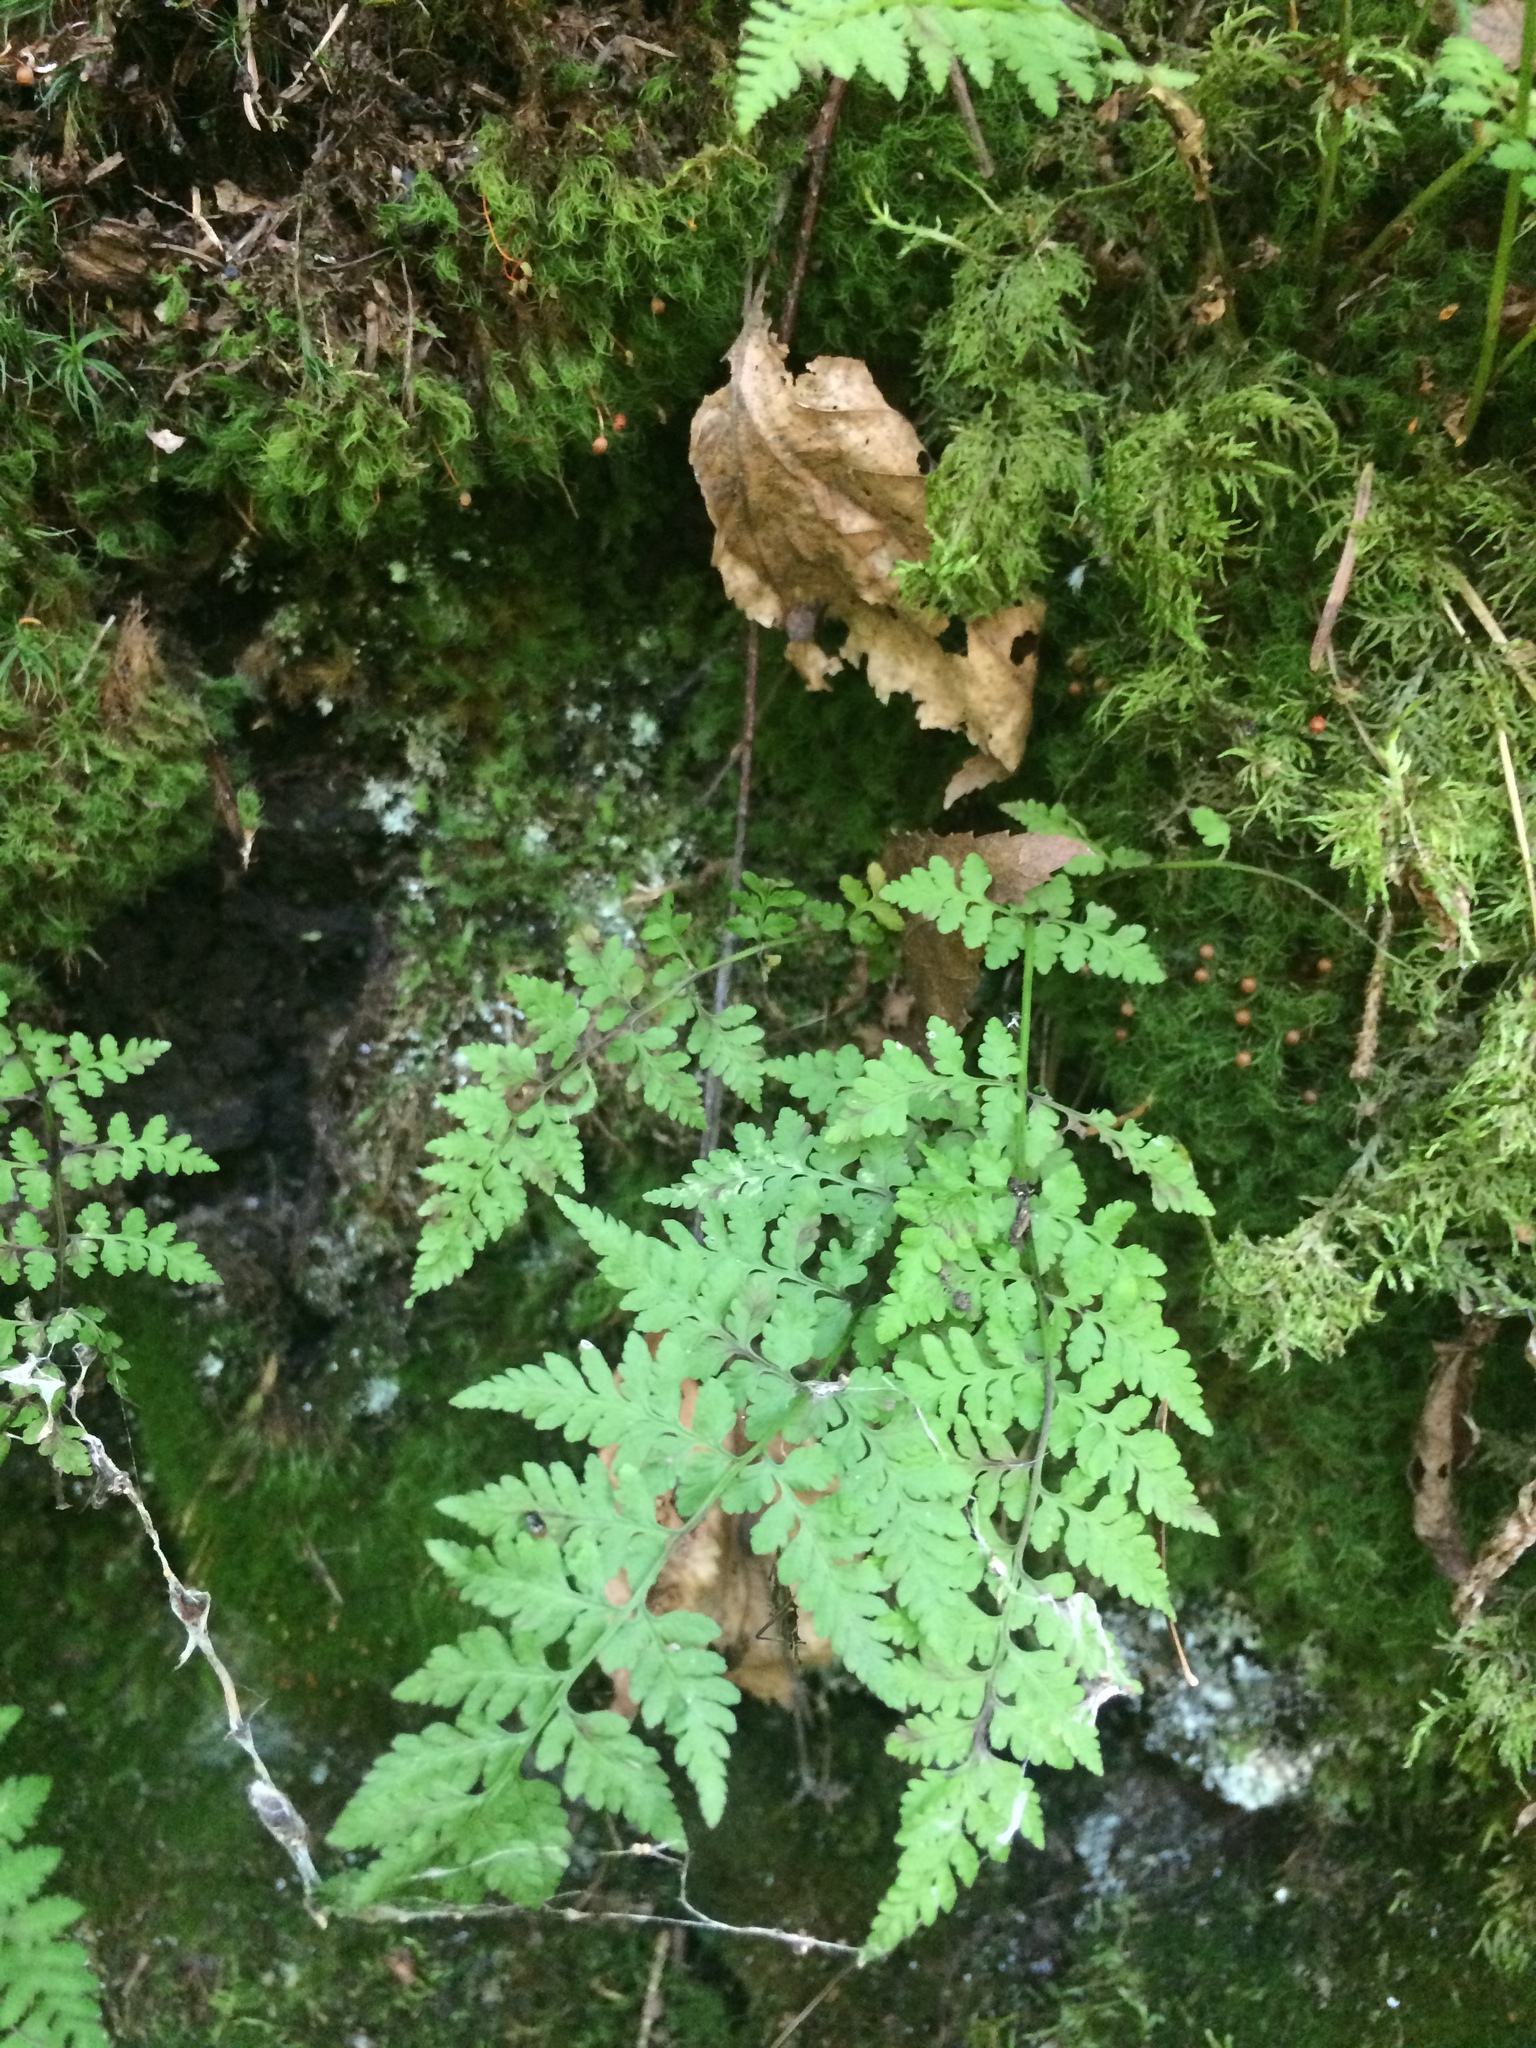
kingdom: Plantae
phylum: Tracheophyta
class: Polypodiopsida
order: Polypodiales
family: Cystopteridaceae
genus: Cystopteris
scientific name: Cystopteris fragilis
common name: Brittle bladder fern
